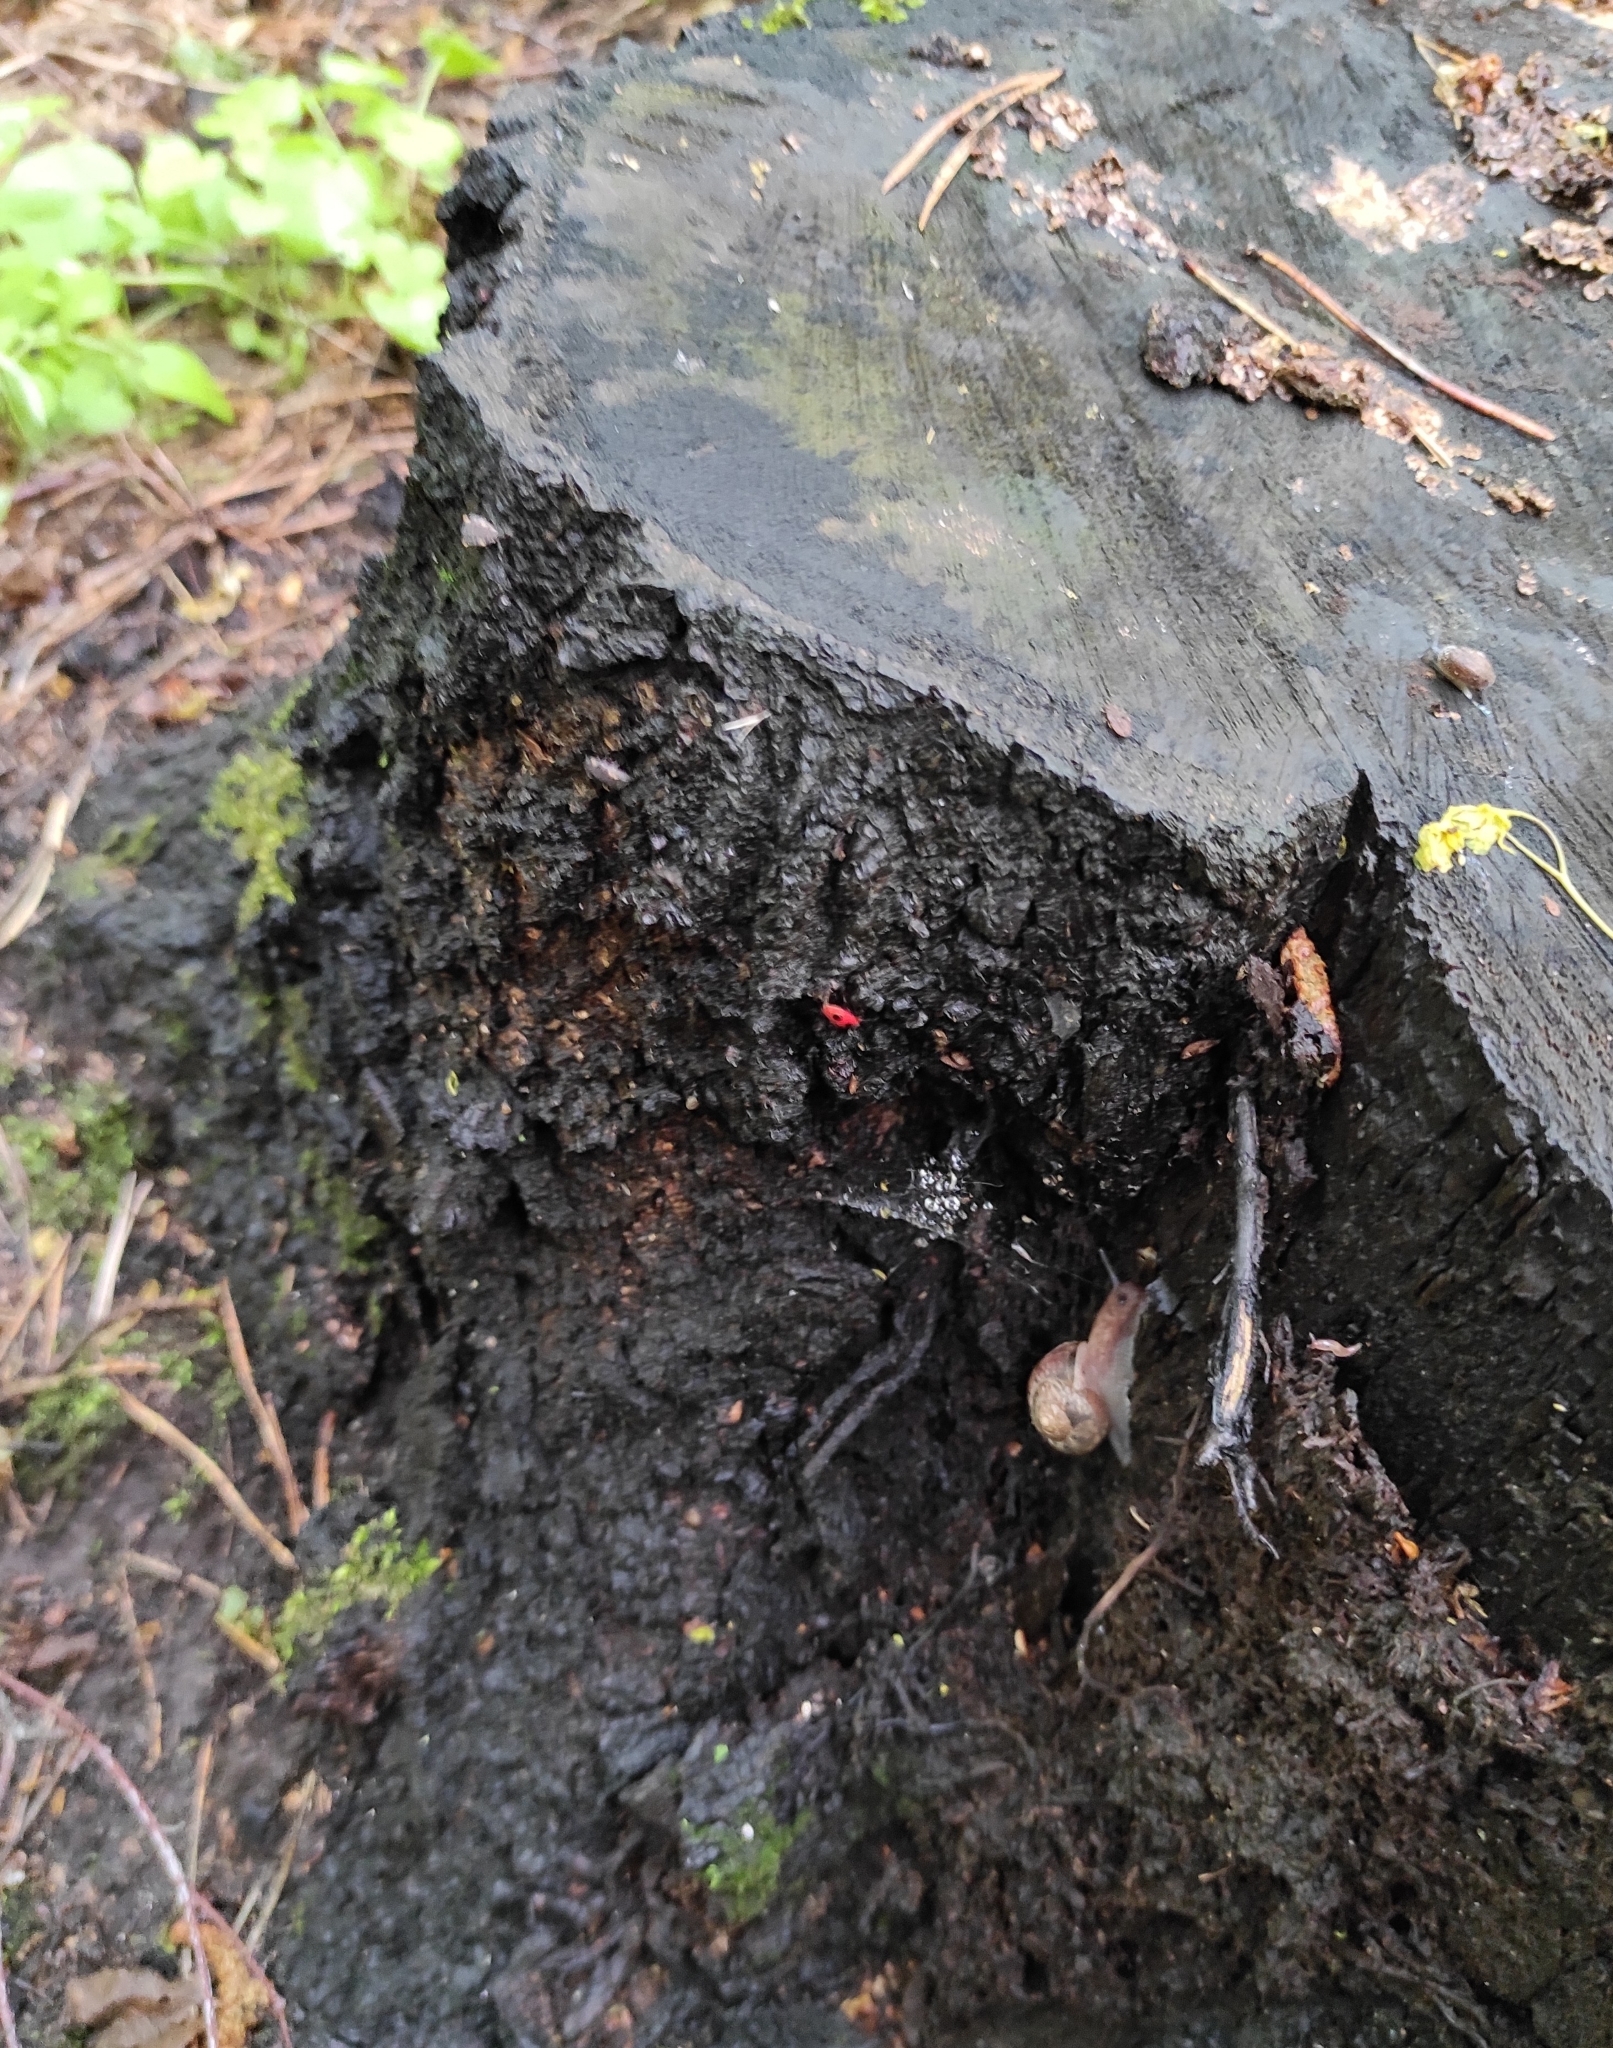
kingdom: Animalia
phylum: Arthropoda
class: Insecta
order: Coleoptera
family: Endomychidae
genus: Endomychus
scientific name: Endomychus coccineus
